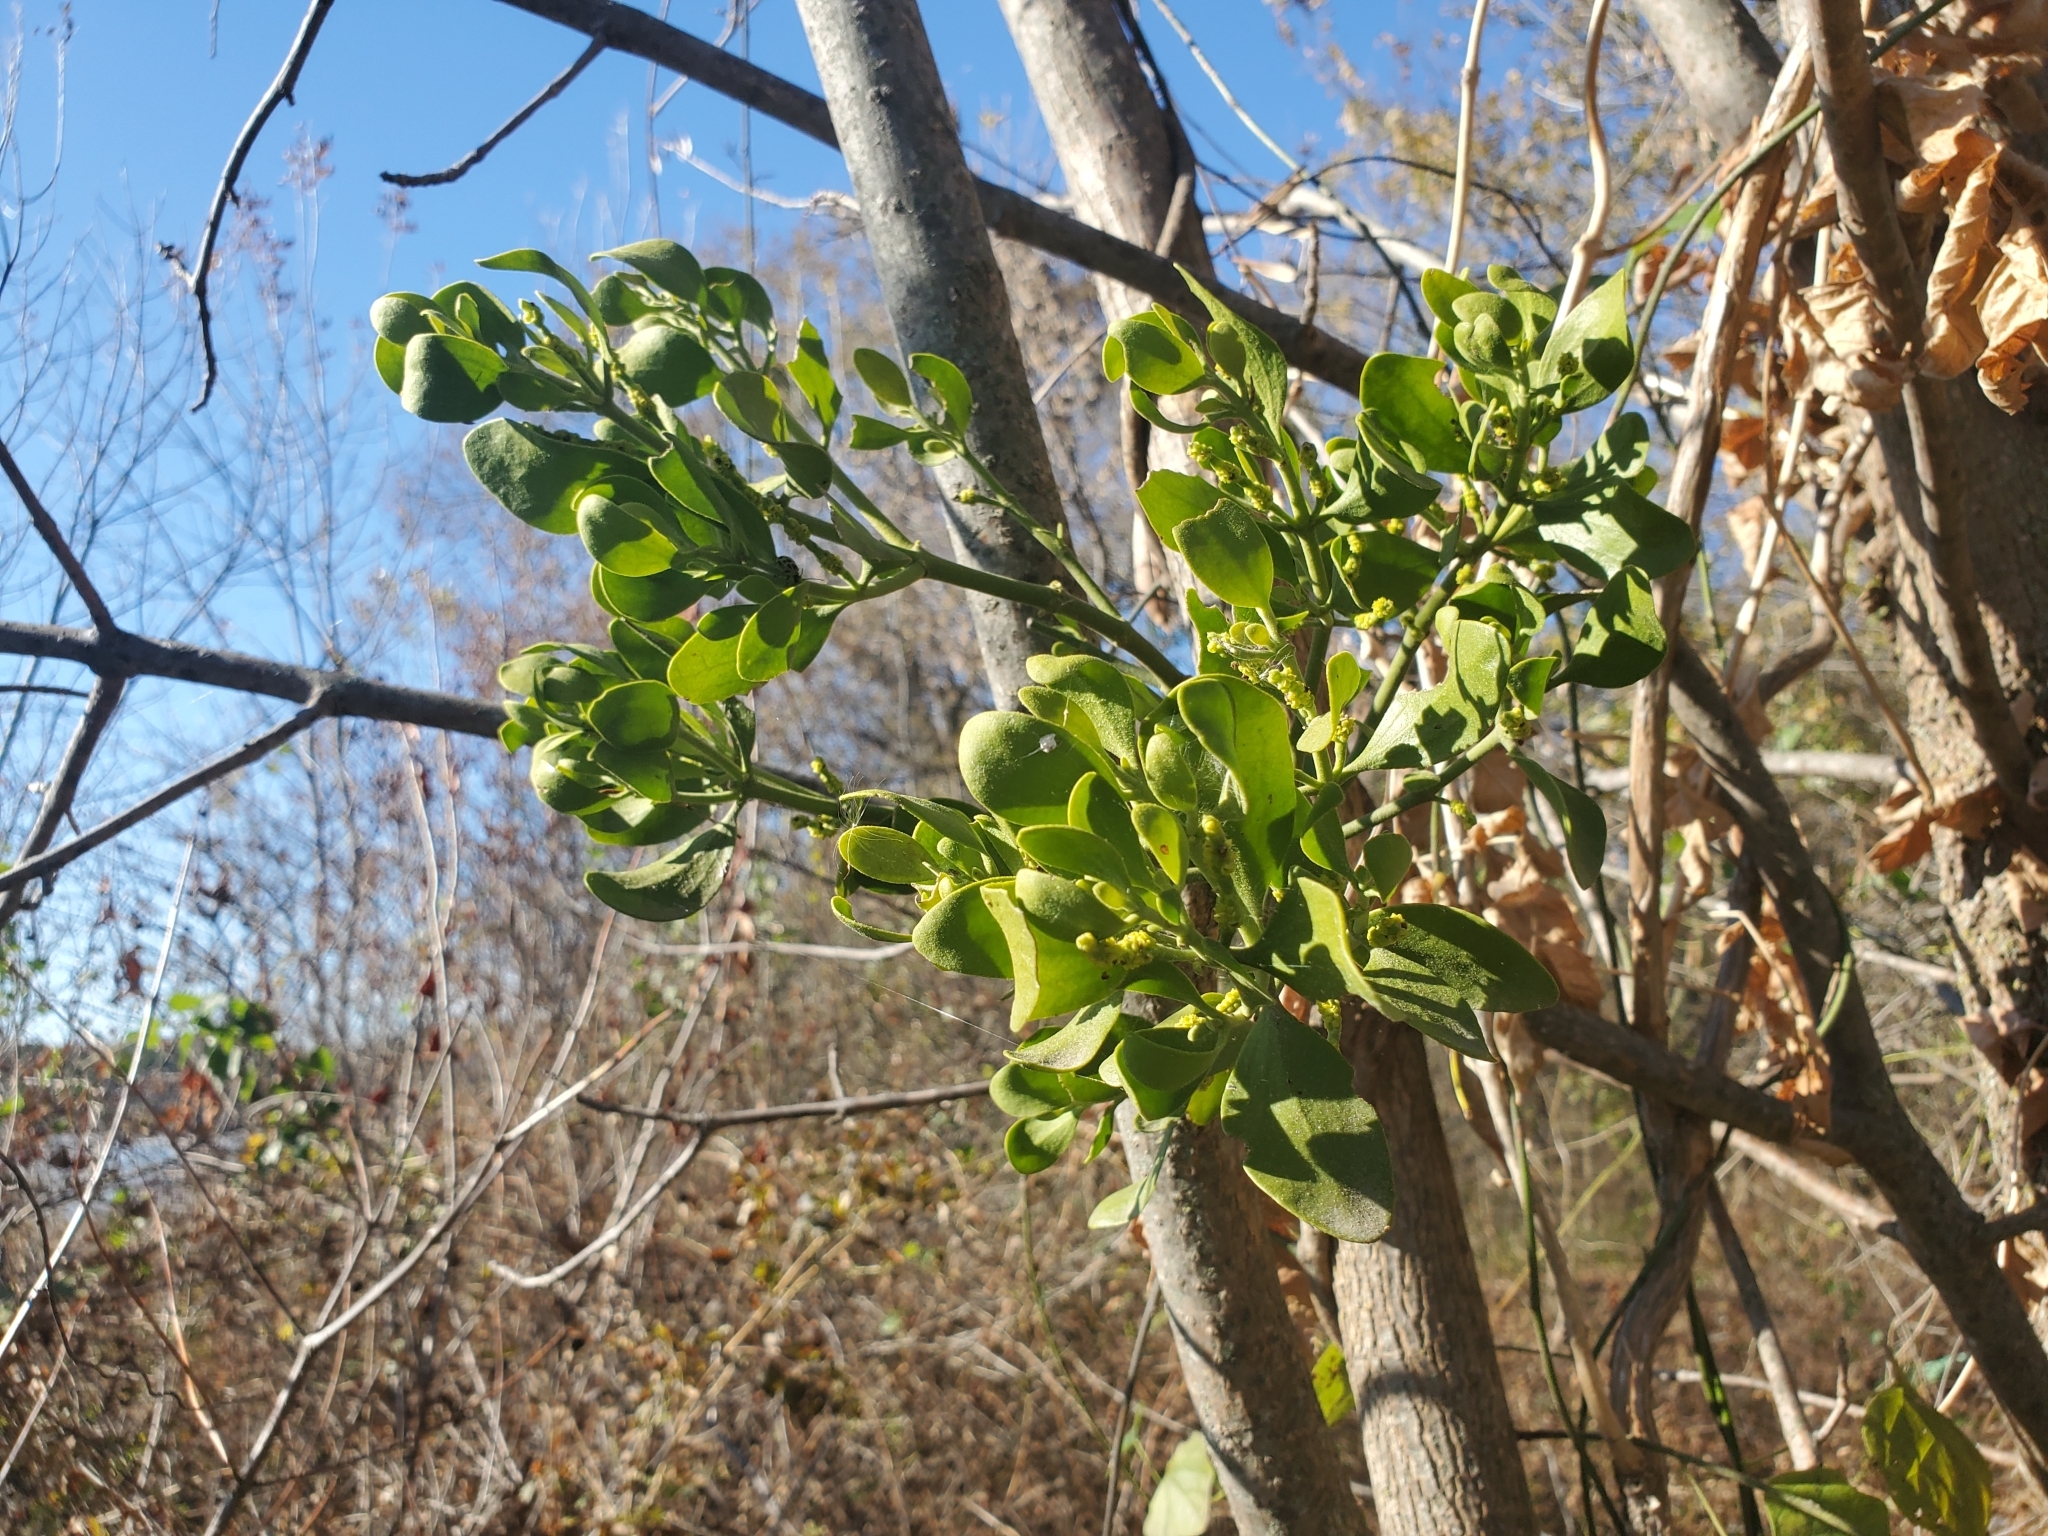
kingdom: Plantae
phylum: Tracheophyta
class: Magnoliopsida
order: Santalales
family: Viscaceae
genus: Phoradendron
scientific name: Phoradendron leucarpum
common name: Pacific mistletoe
